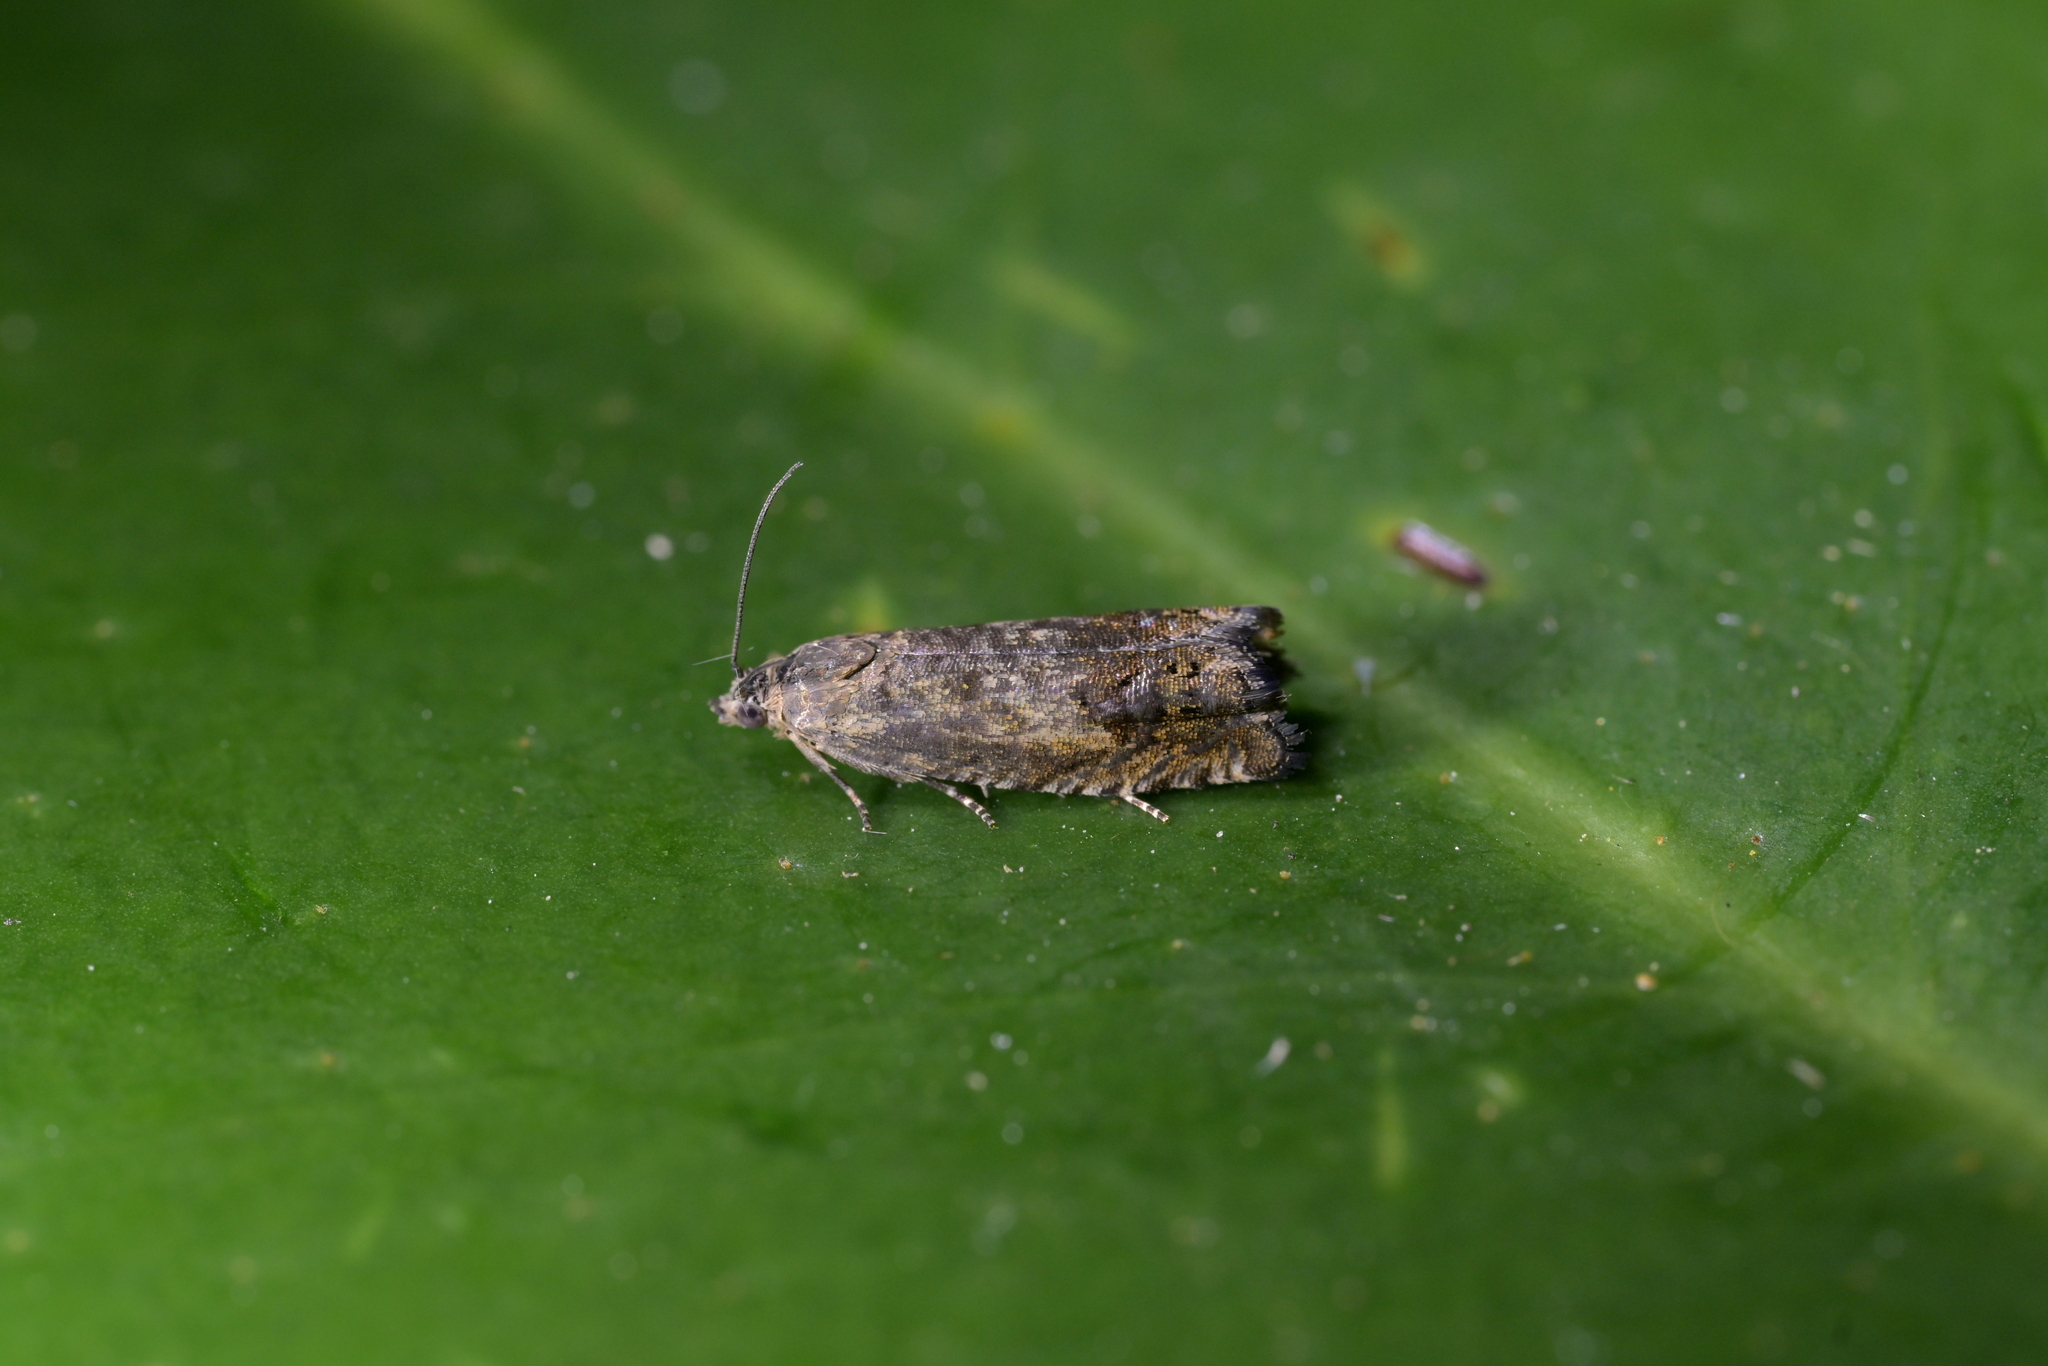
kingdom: Animalia
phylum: Arthropoda
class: Insecta
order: Lepidoptera
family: Tortricidae
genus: Cydia
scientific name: Cydia succedana
